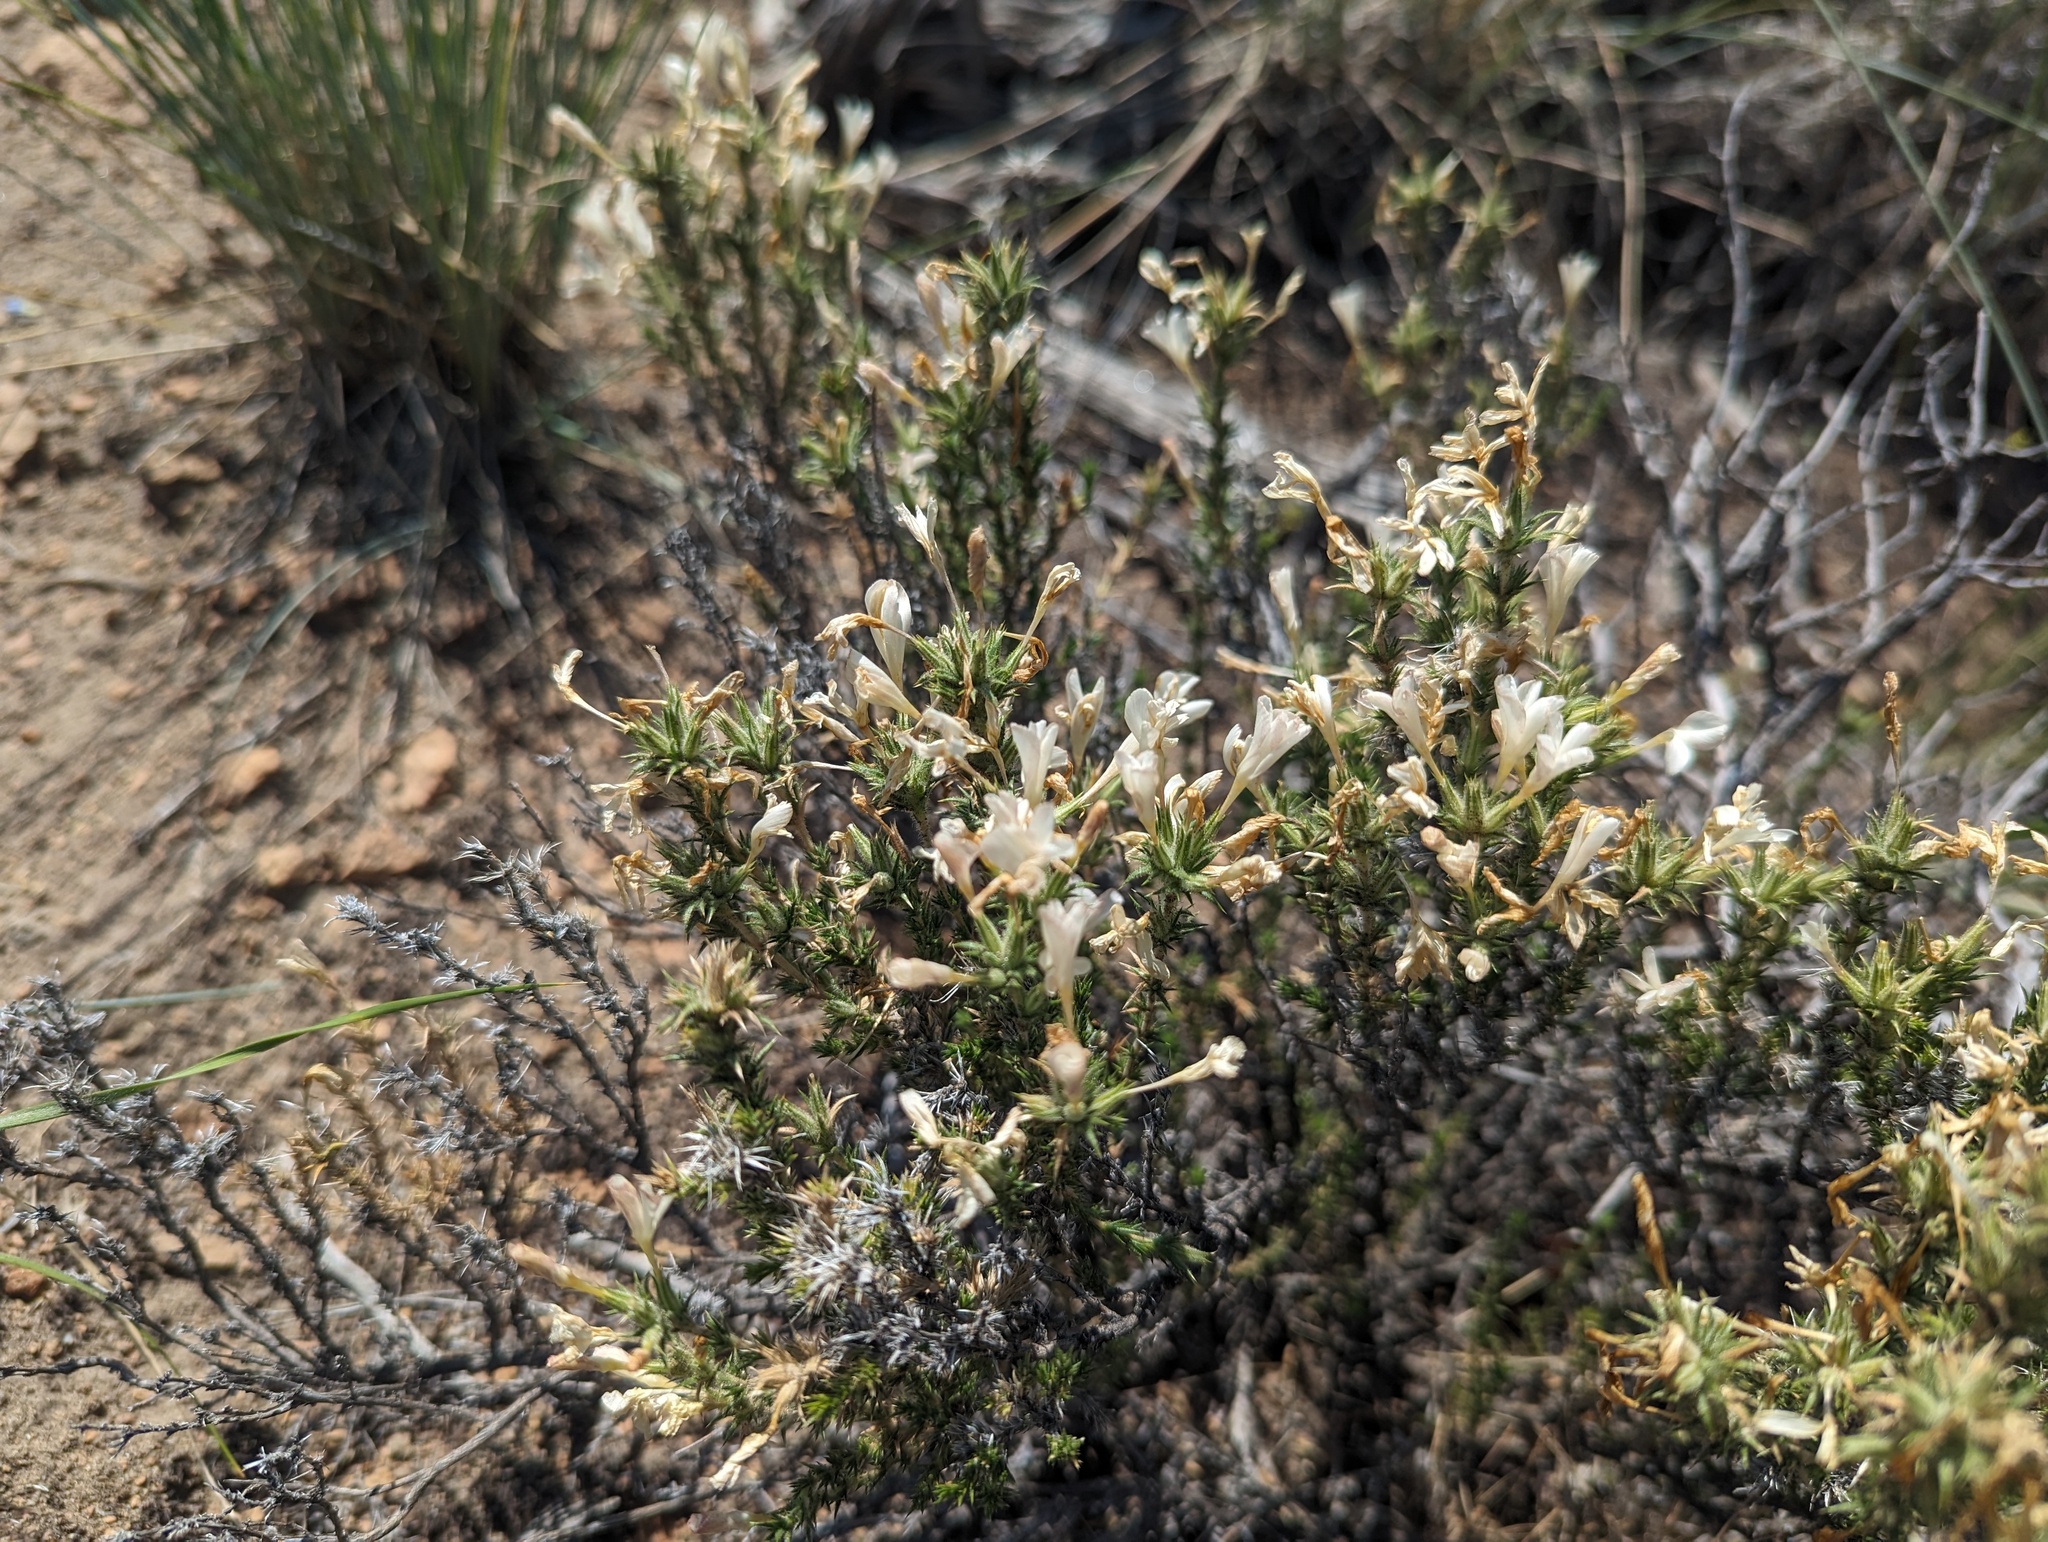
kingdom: Plantae
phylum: Tracheophyta
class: Magnoliopsida
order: Ericales
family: Polemoniaceae
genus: Linanthus
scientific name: Linanthus pungens
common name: Granite prickly phlox
